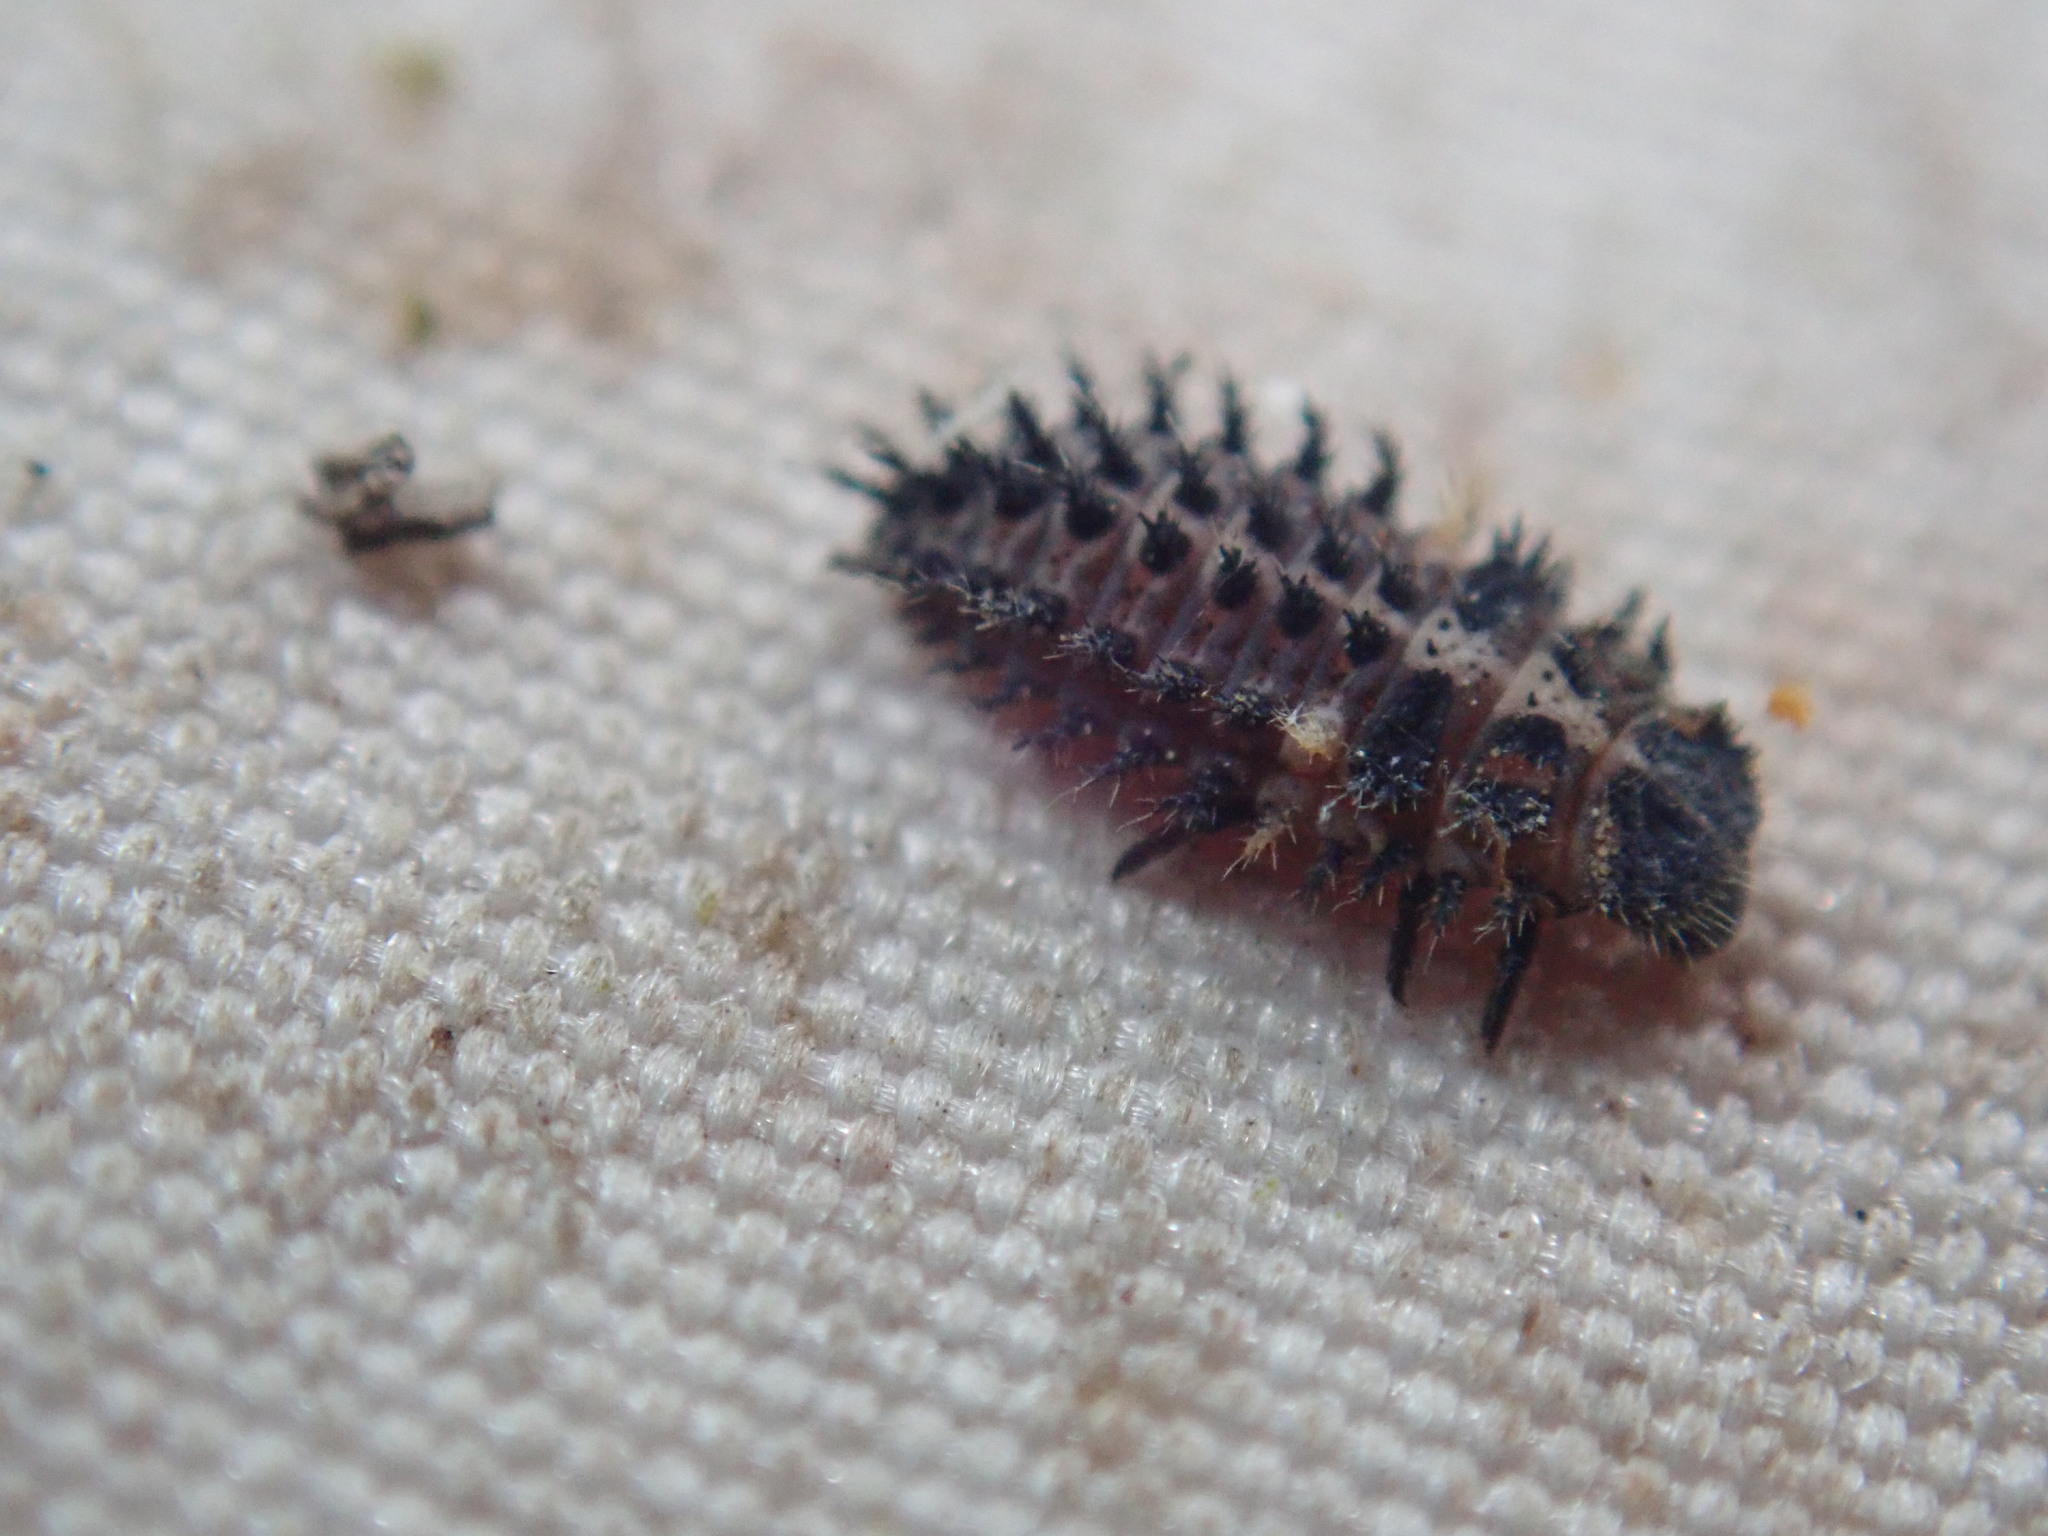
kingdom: Animalia
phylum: Arthropoda
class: Insecta
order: Coleoptera
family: Coccinellidae
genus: Brumus
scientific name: Brumus quadripustulatus
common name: Ladybird beetle
